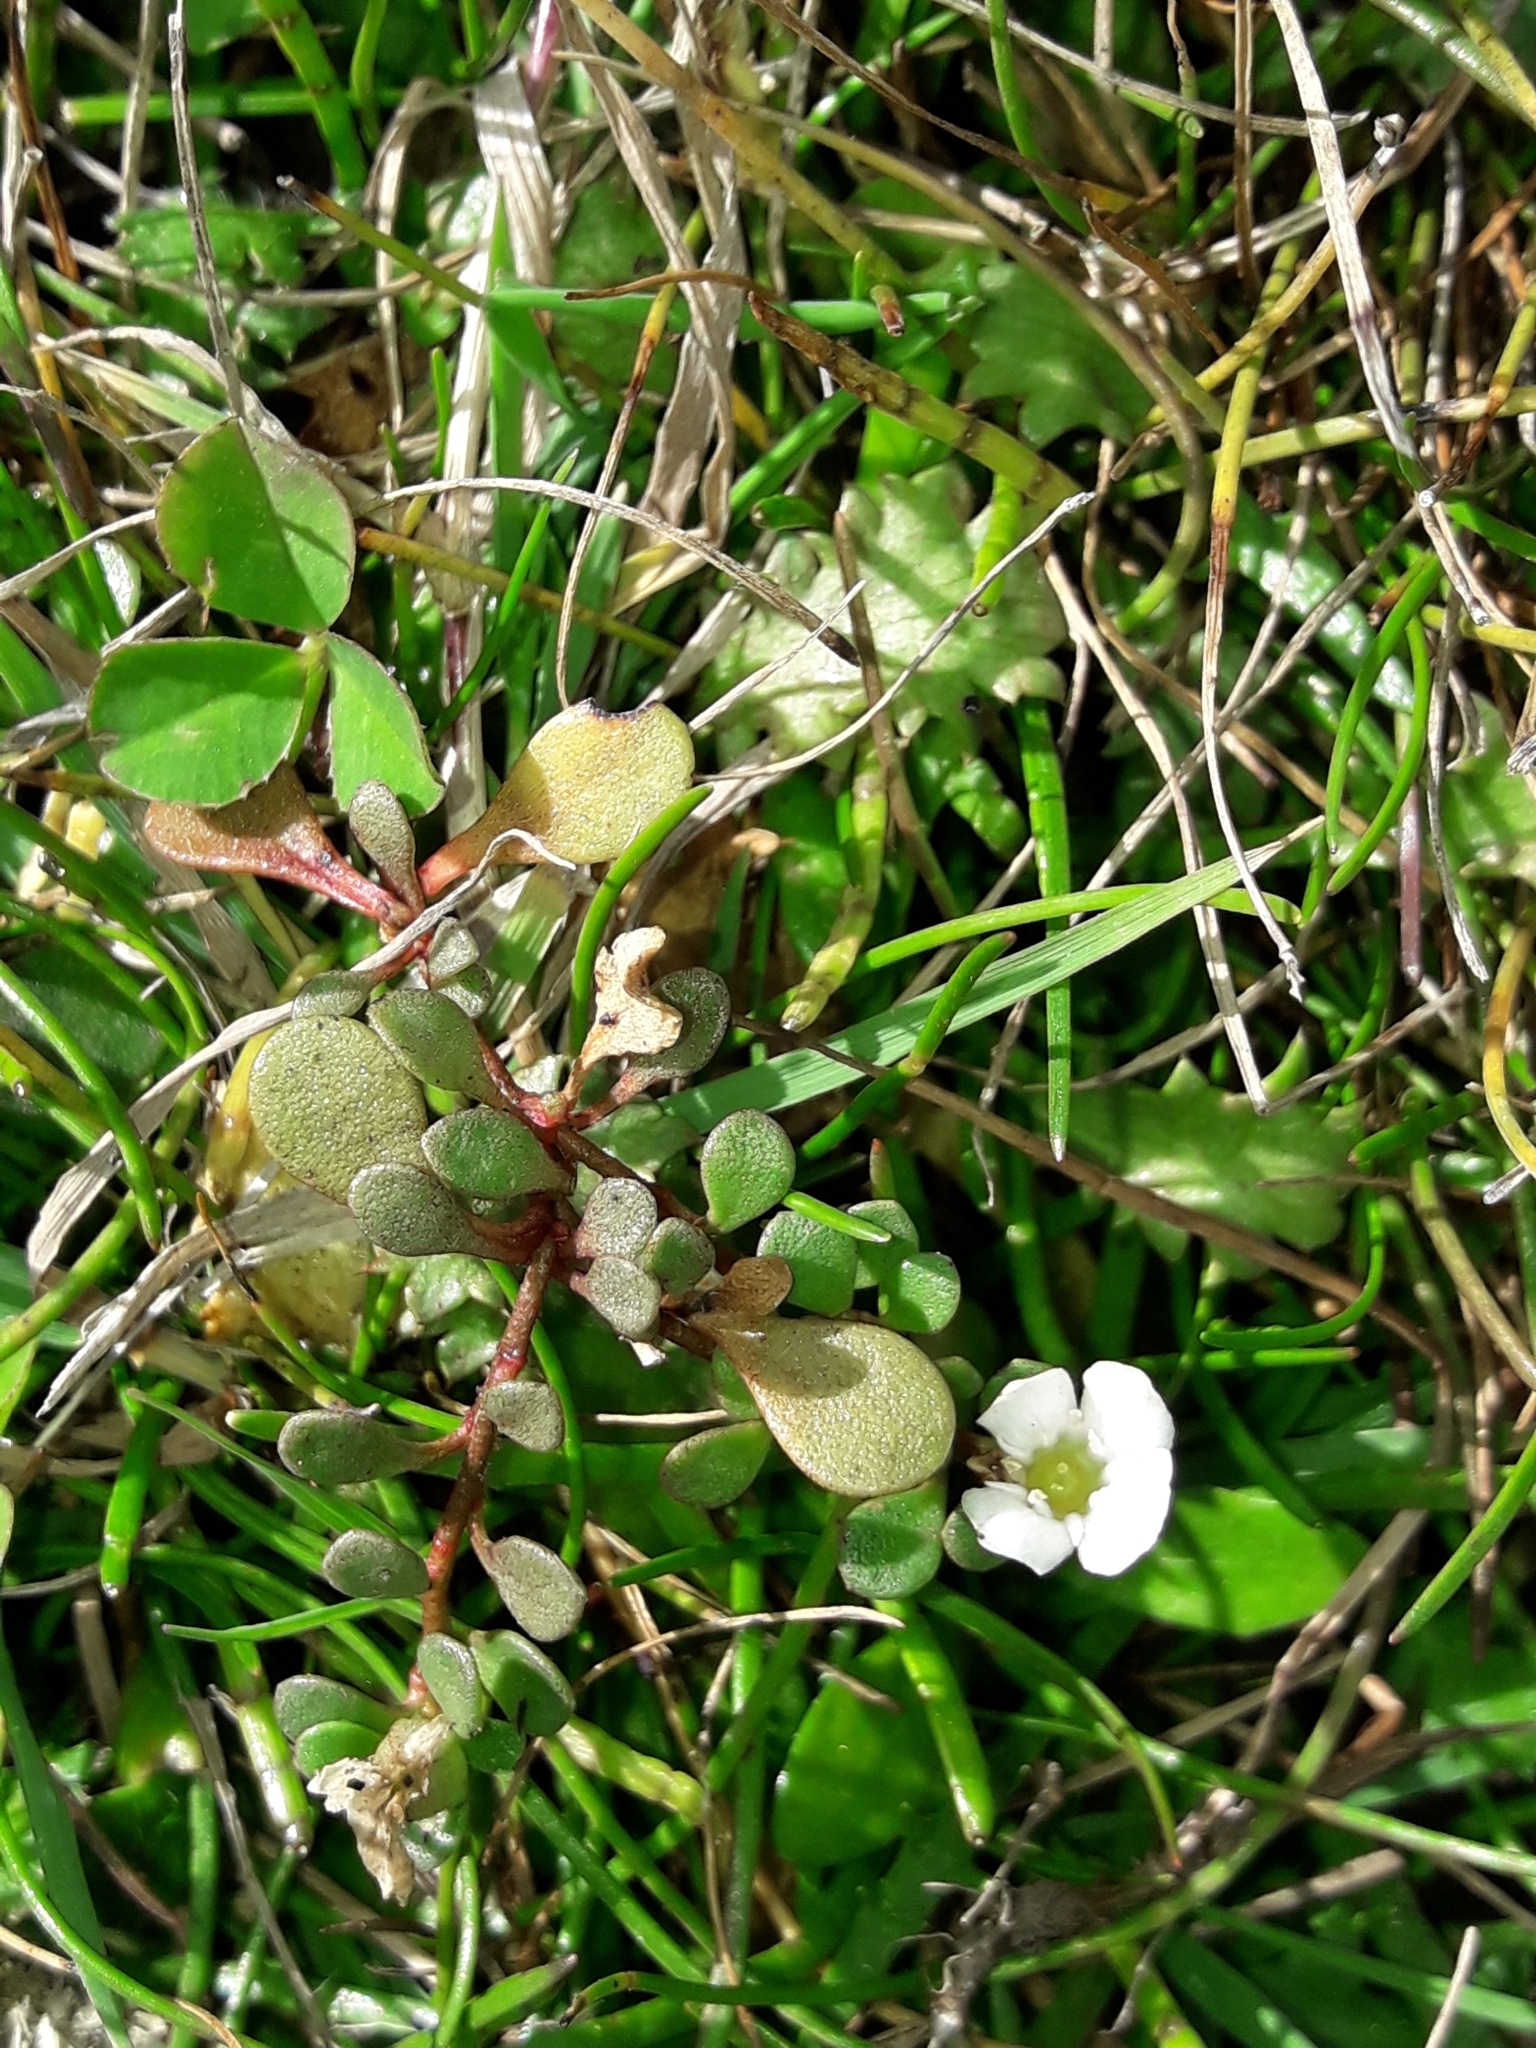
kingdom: Plantae
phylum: Tracheophyta
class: Magnoliopsida
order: Ericales
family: Primulaceae
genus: Samolus
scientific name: Samolus repens
